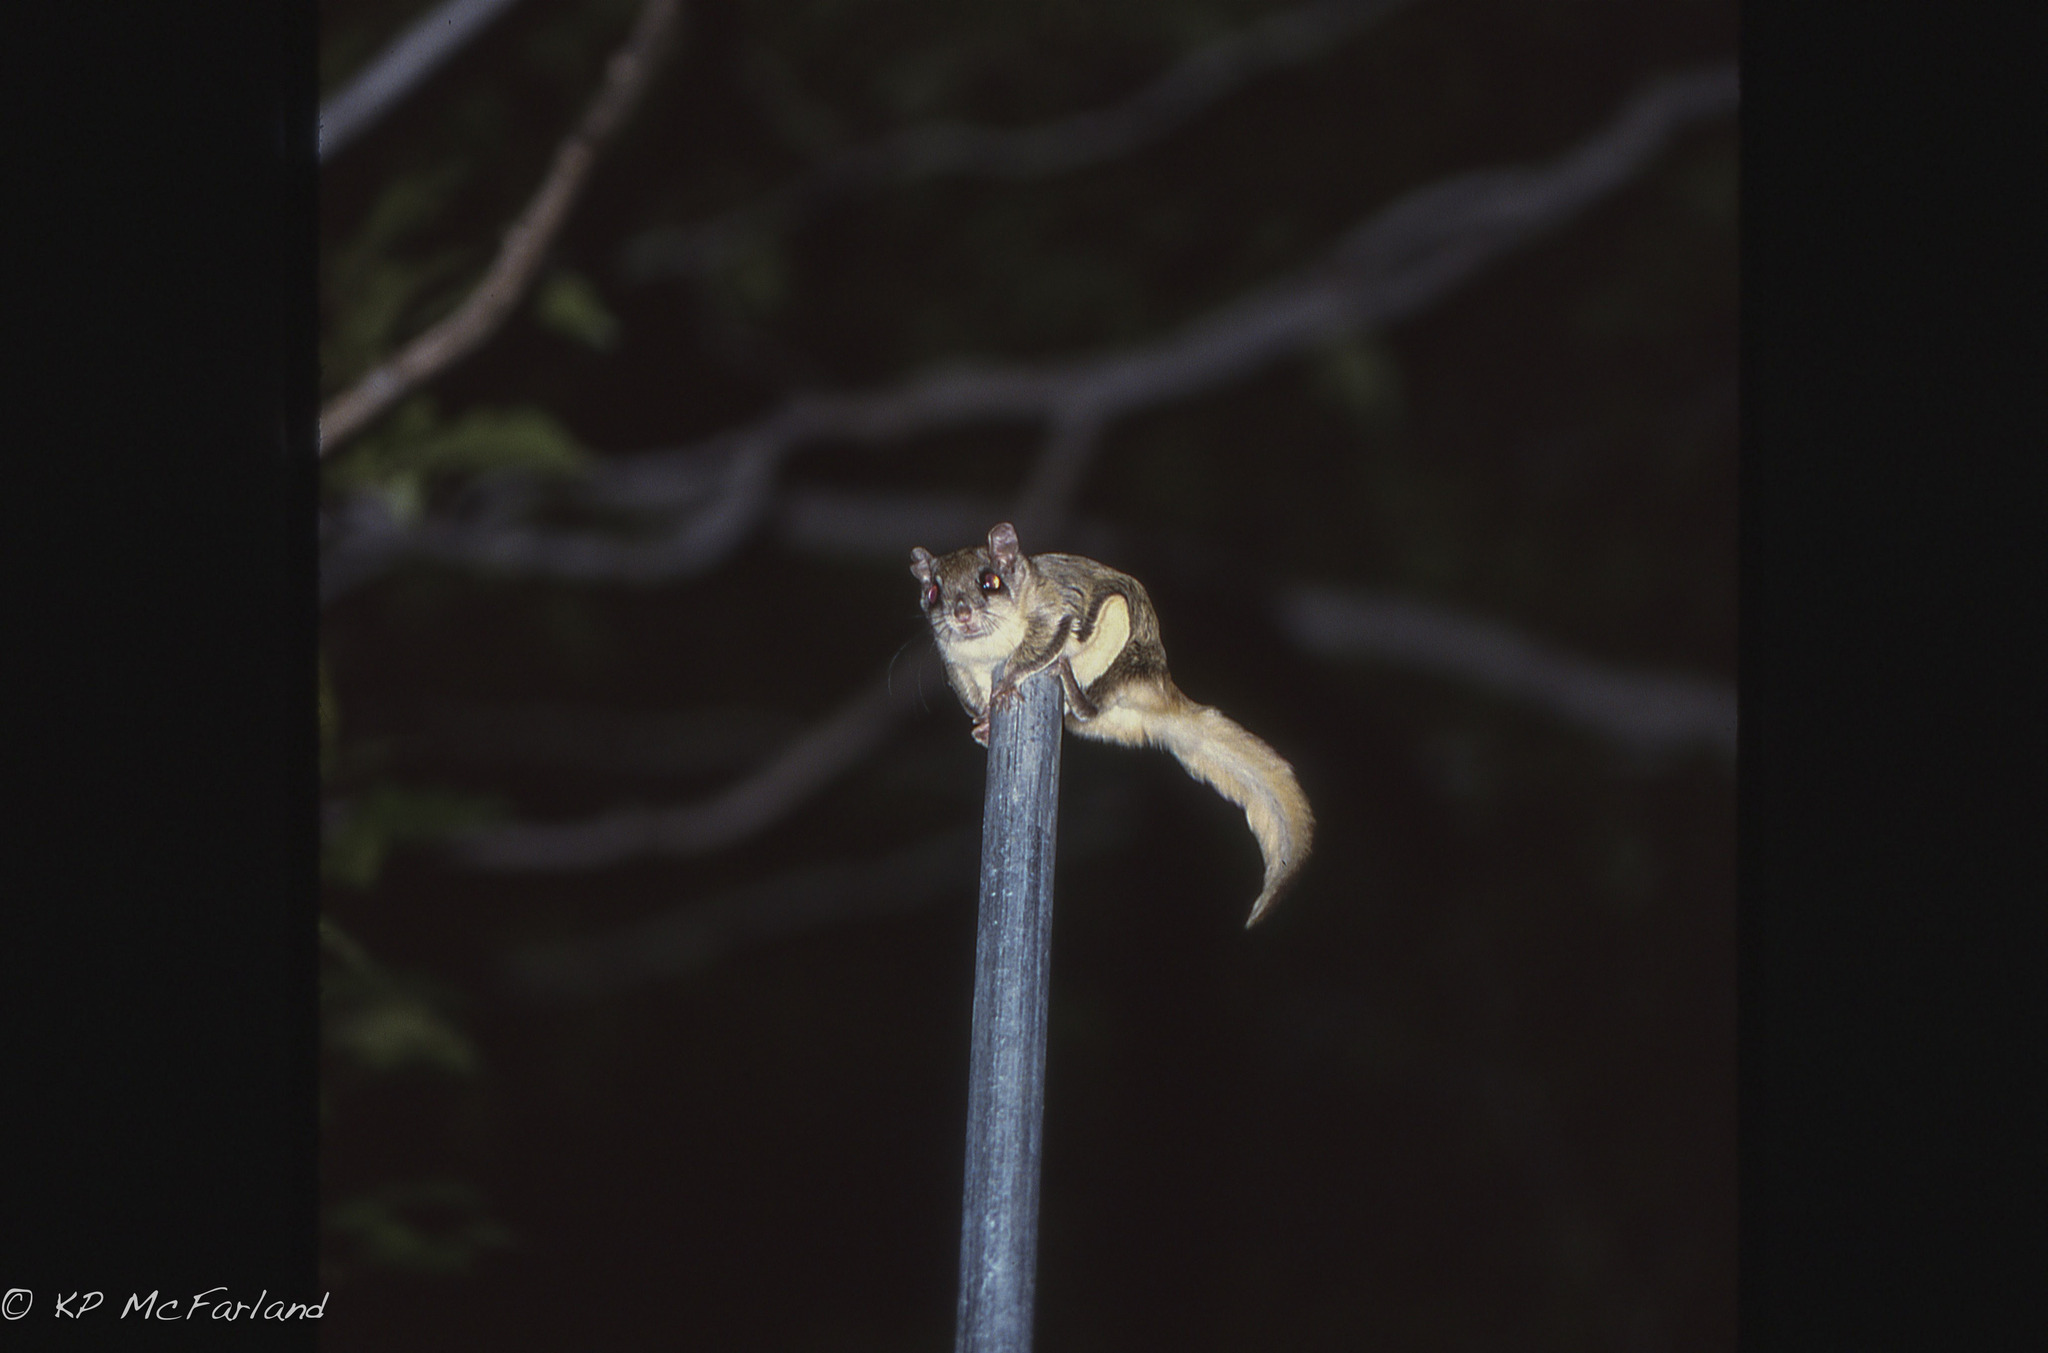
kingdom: Animalia
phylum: Chordata
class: Mammalia
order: Rodentia
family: Sciuridae
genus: Glaucomys
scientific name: Glaucomys volans
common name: Southern flying squirrel
